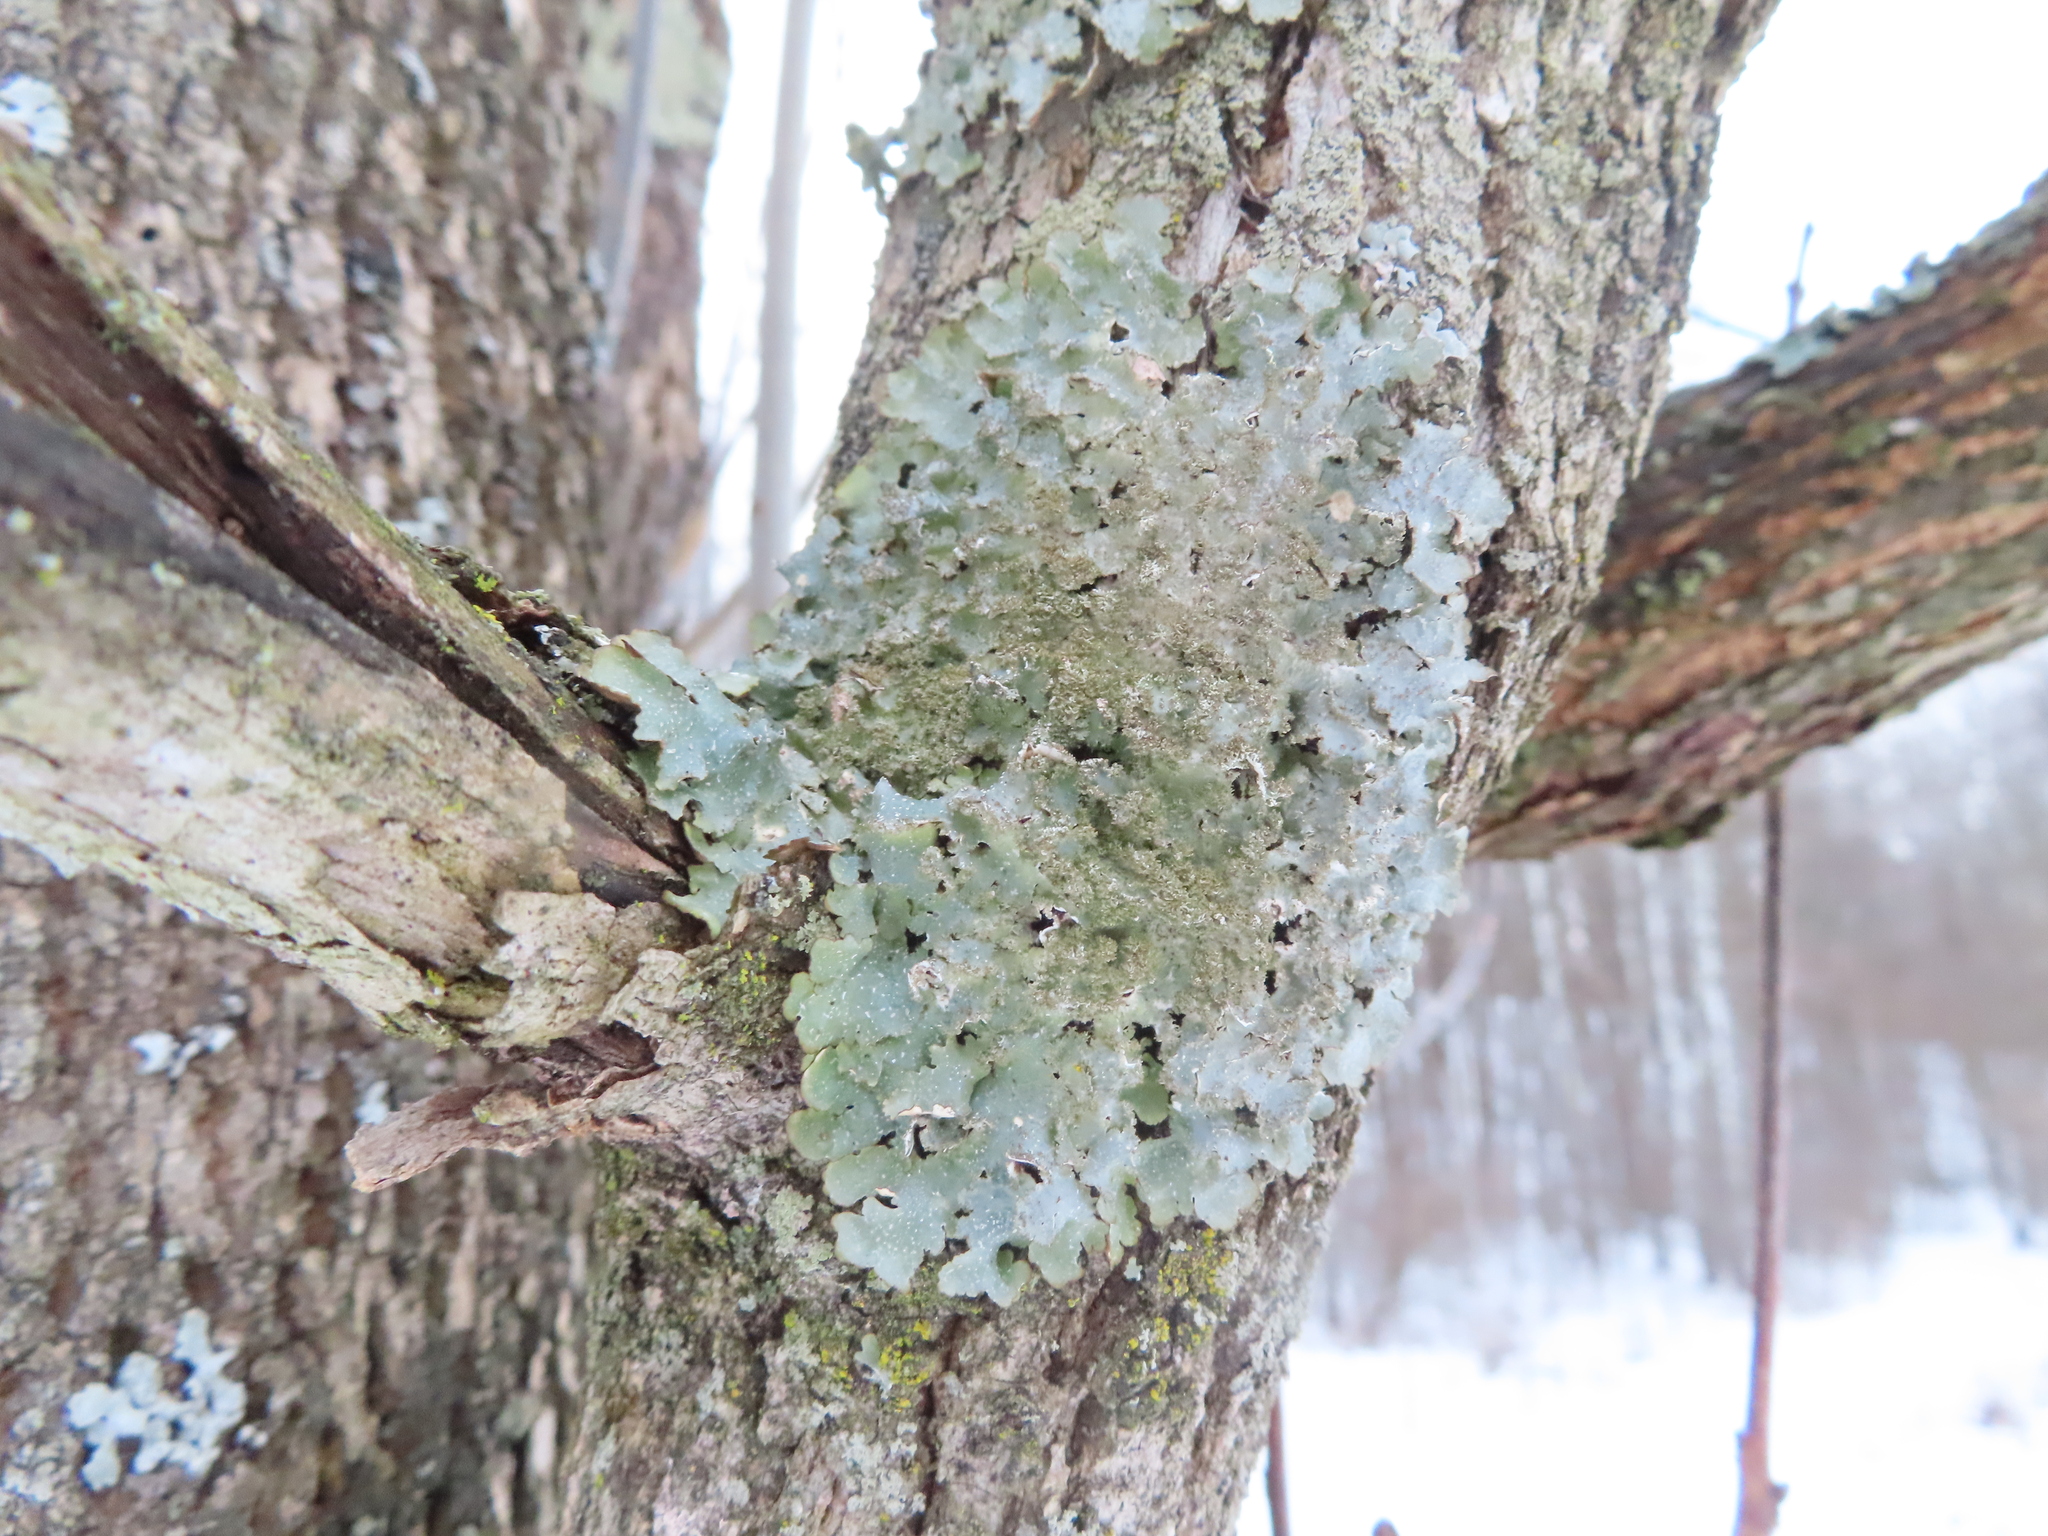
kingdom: Fungi
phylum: Ascomycota
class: Lecanoromycetes
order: Lecanorales
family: Parmeliaceae
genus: Punctelia
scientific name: Punctelia rudecta
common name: Rough speckled shield lichen
